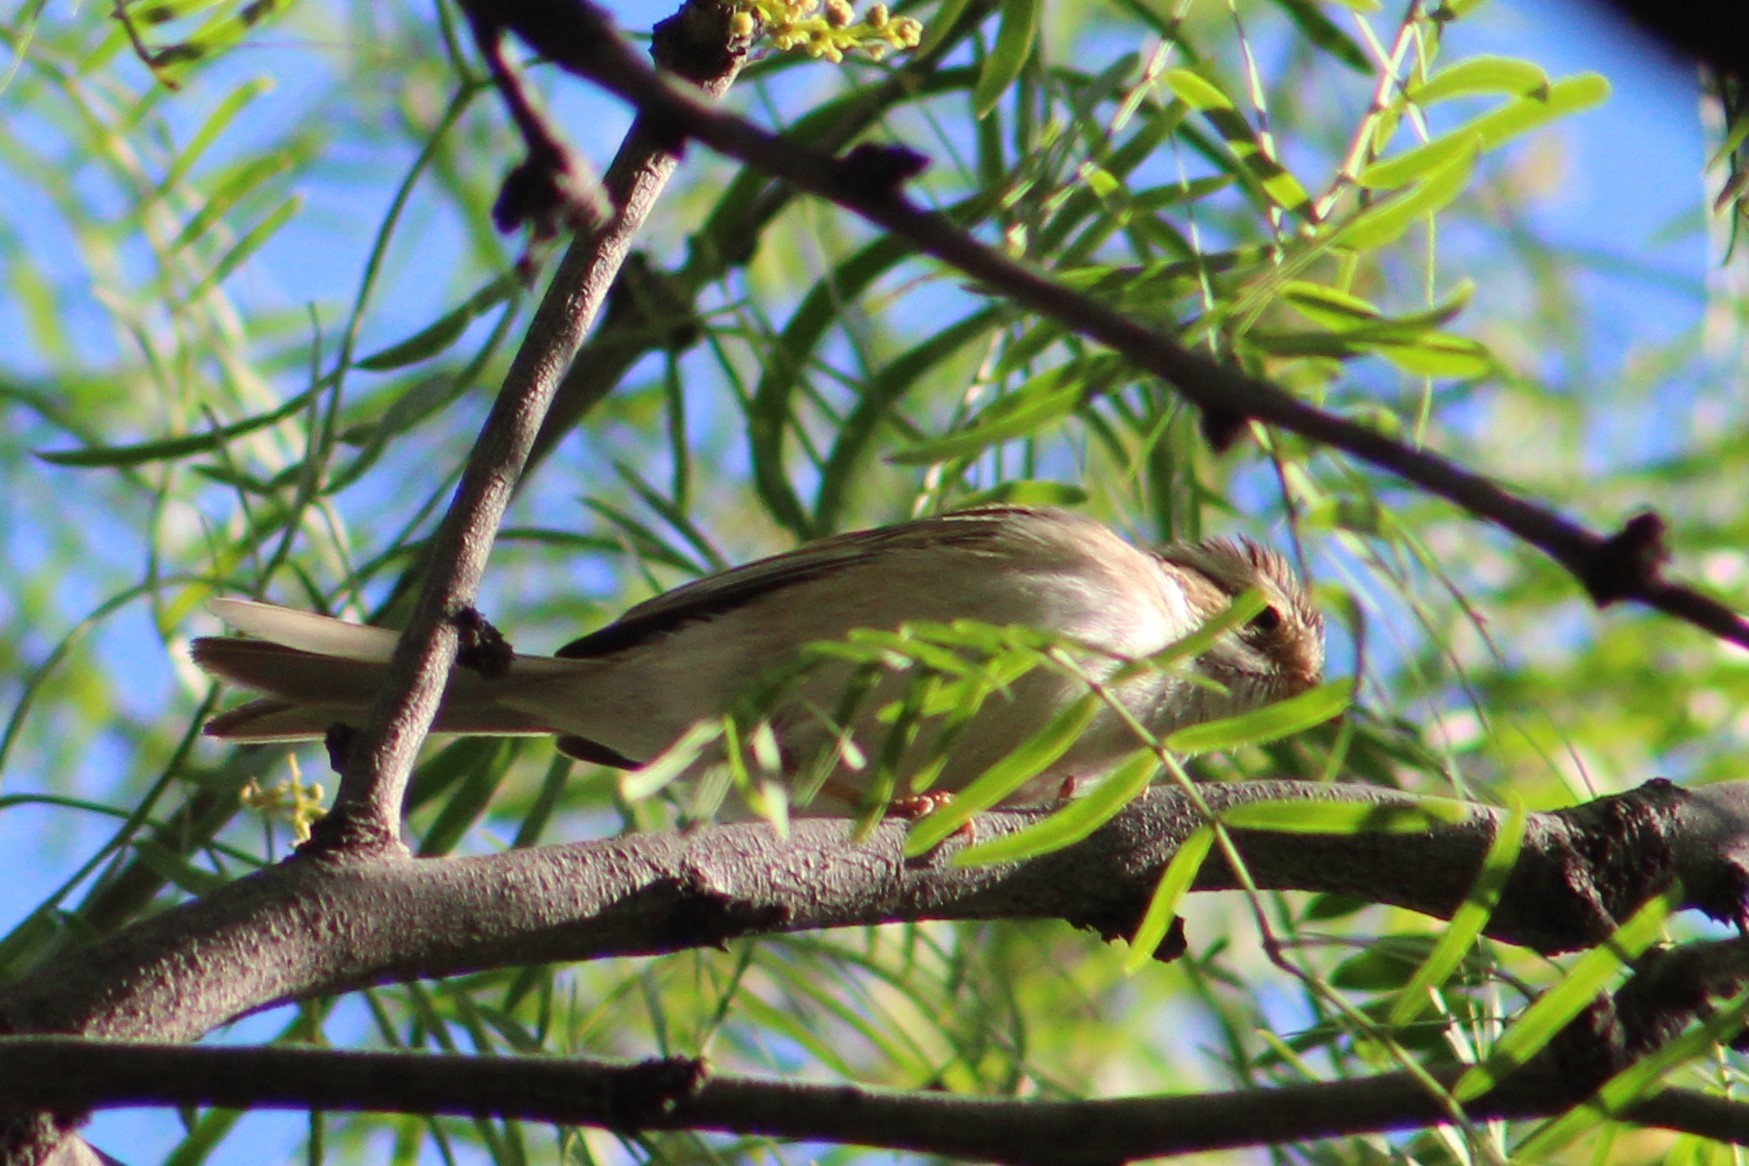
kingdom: Animalia
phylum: Chordata
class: Aves
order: Passeriformes
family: Passerellidae
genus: Spizella
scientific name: Spizella pallida
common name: Clay-colored sparrow
